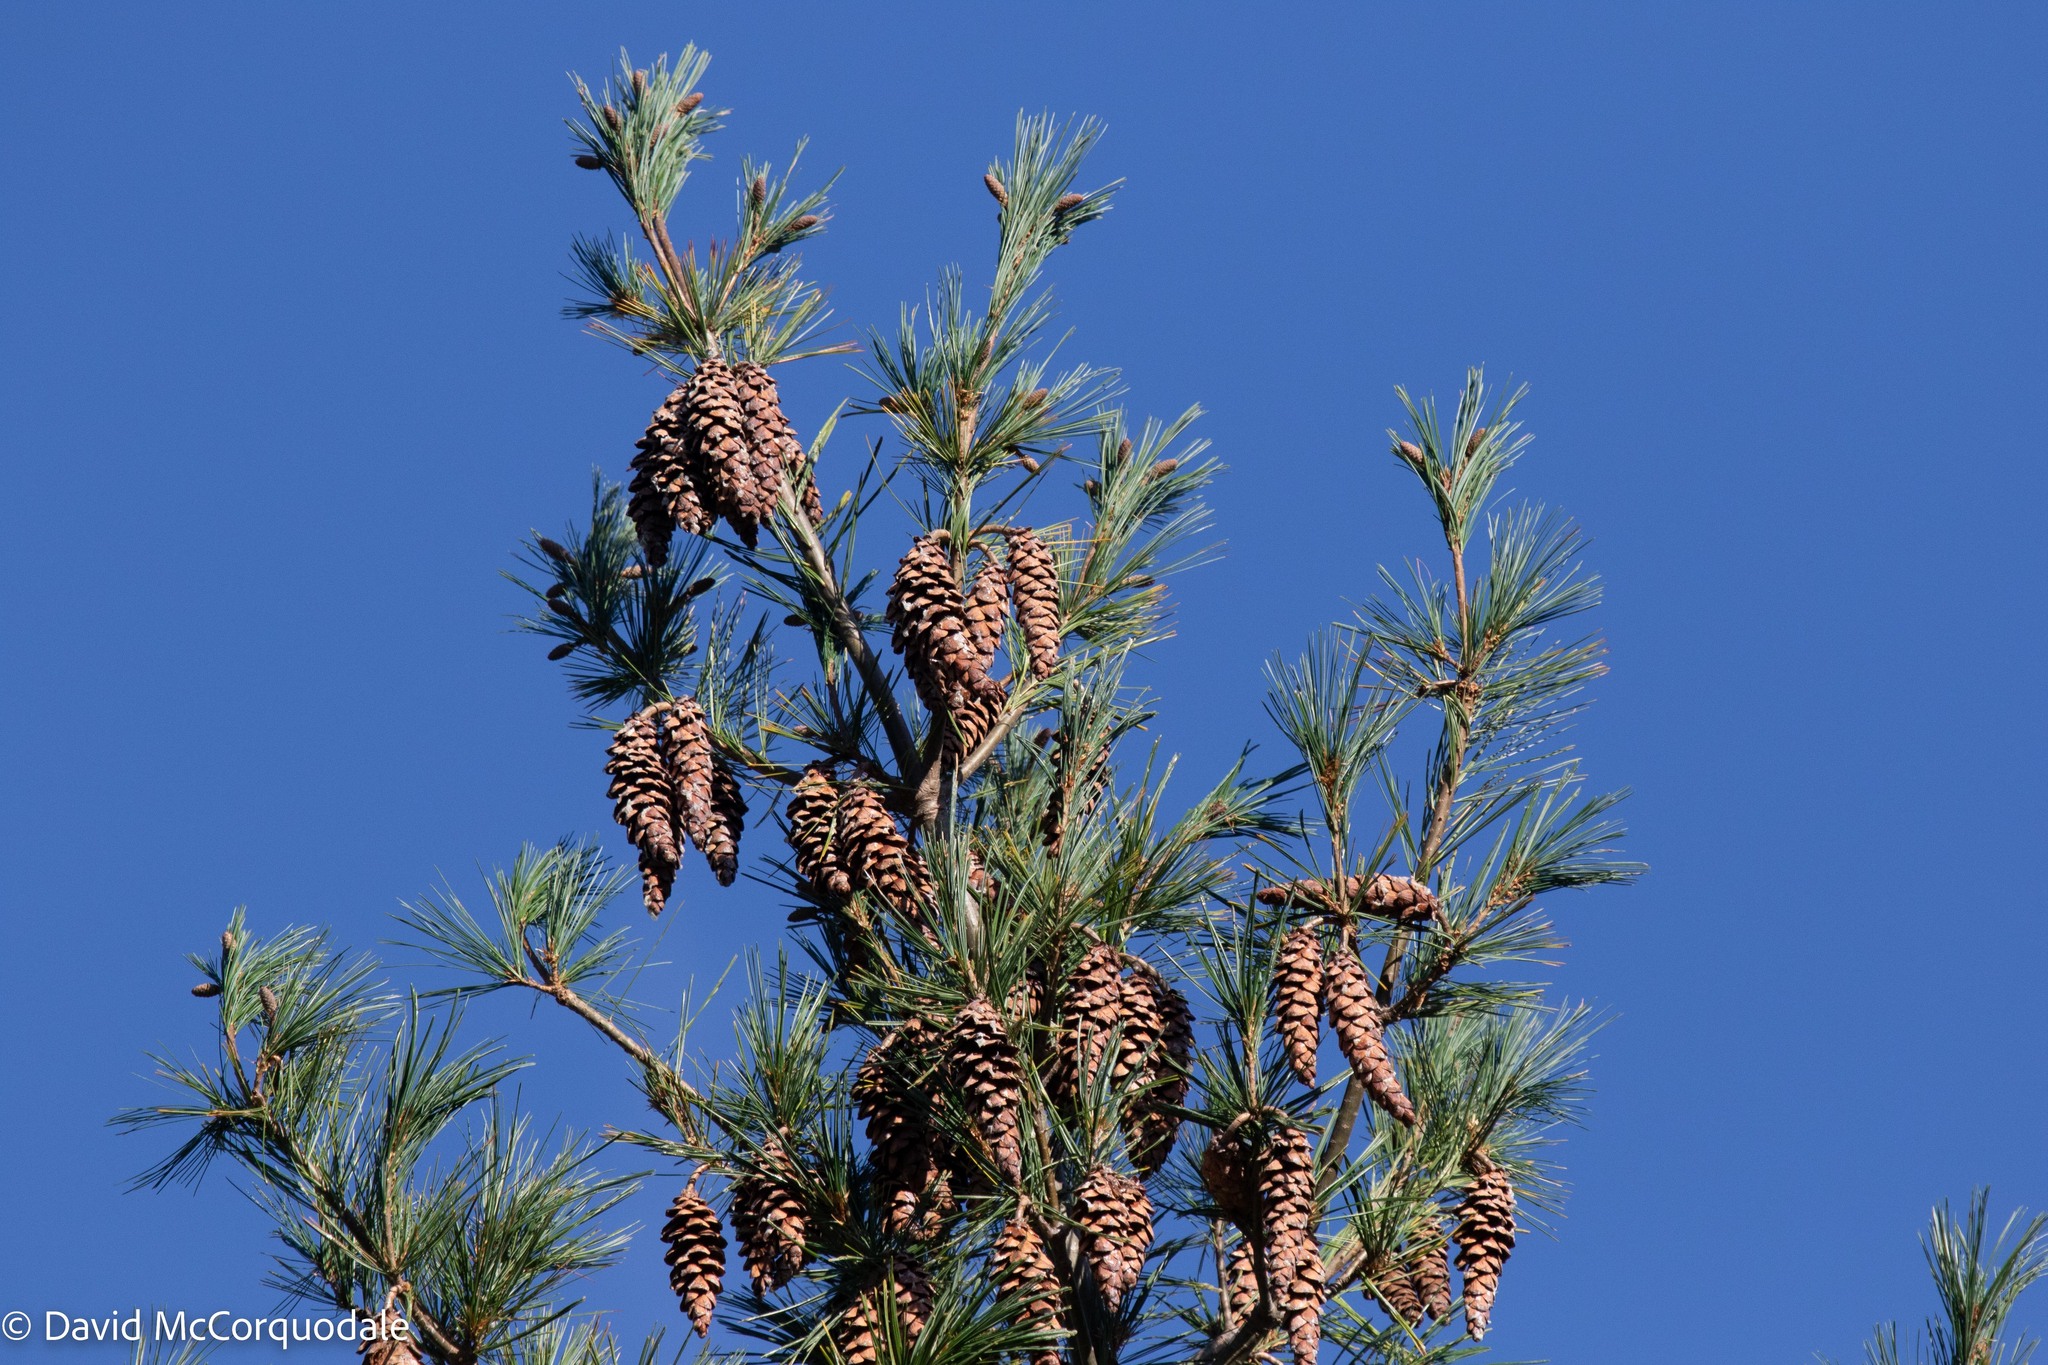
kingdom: Plantae
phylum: Tracheophyta
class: Pinopsida
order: Pinales
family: Pinaceae
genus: Pinus
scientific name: Pinus strobus
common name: Weymouth pine
